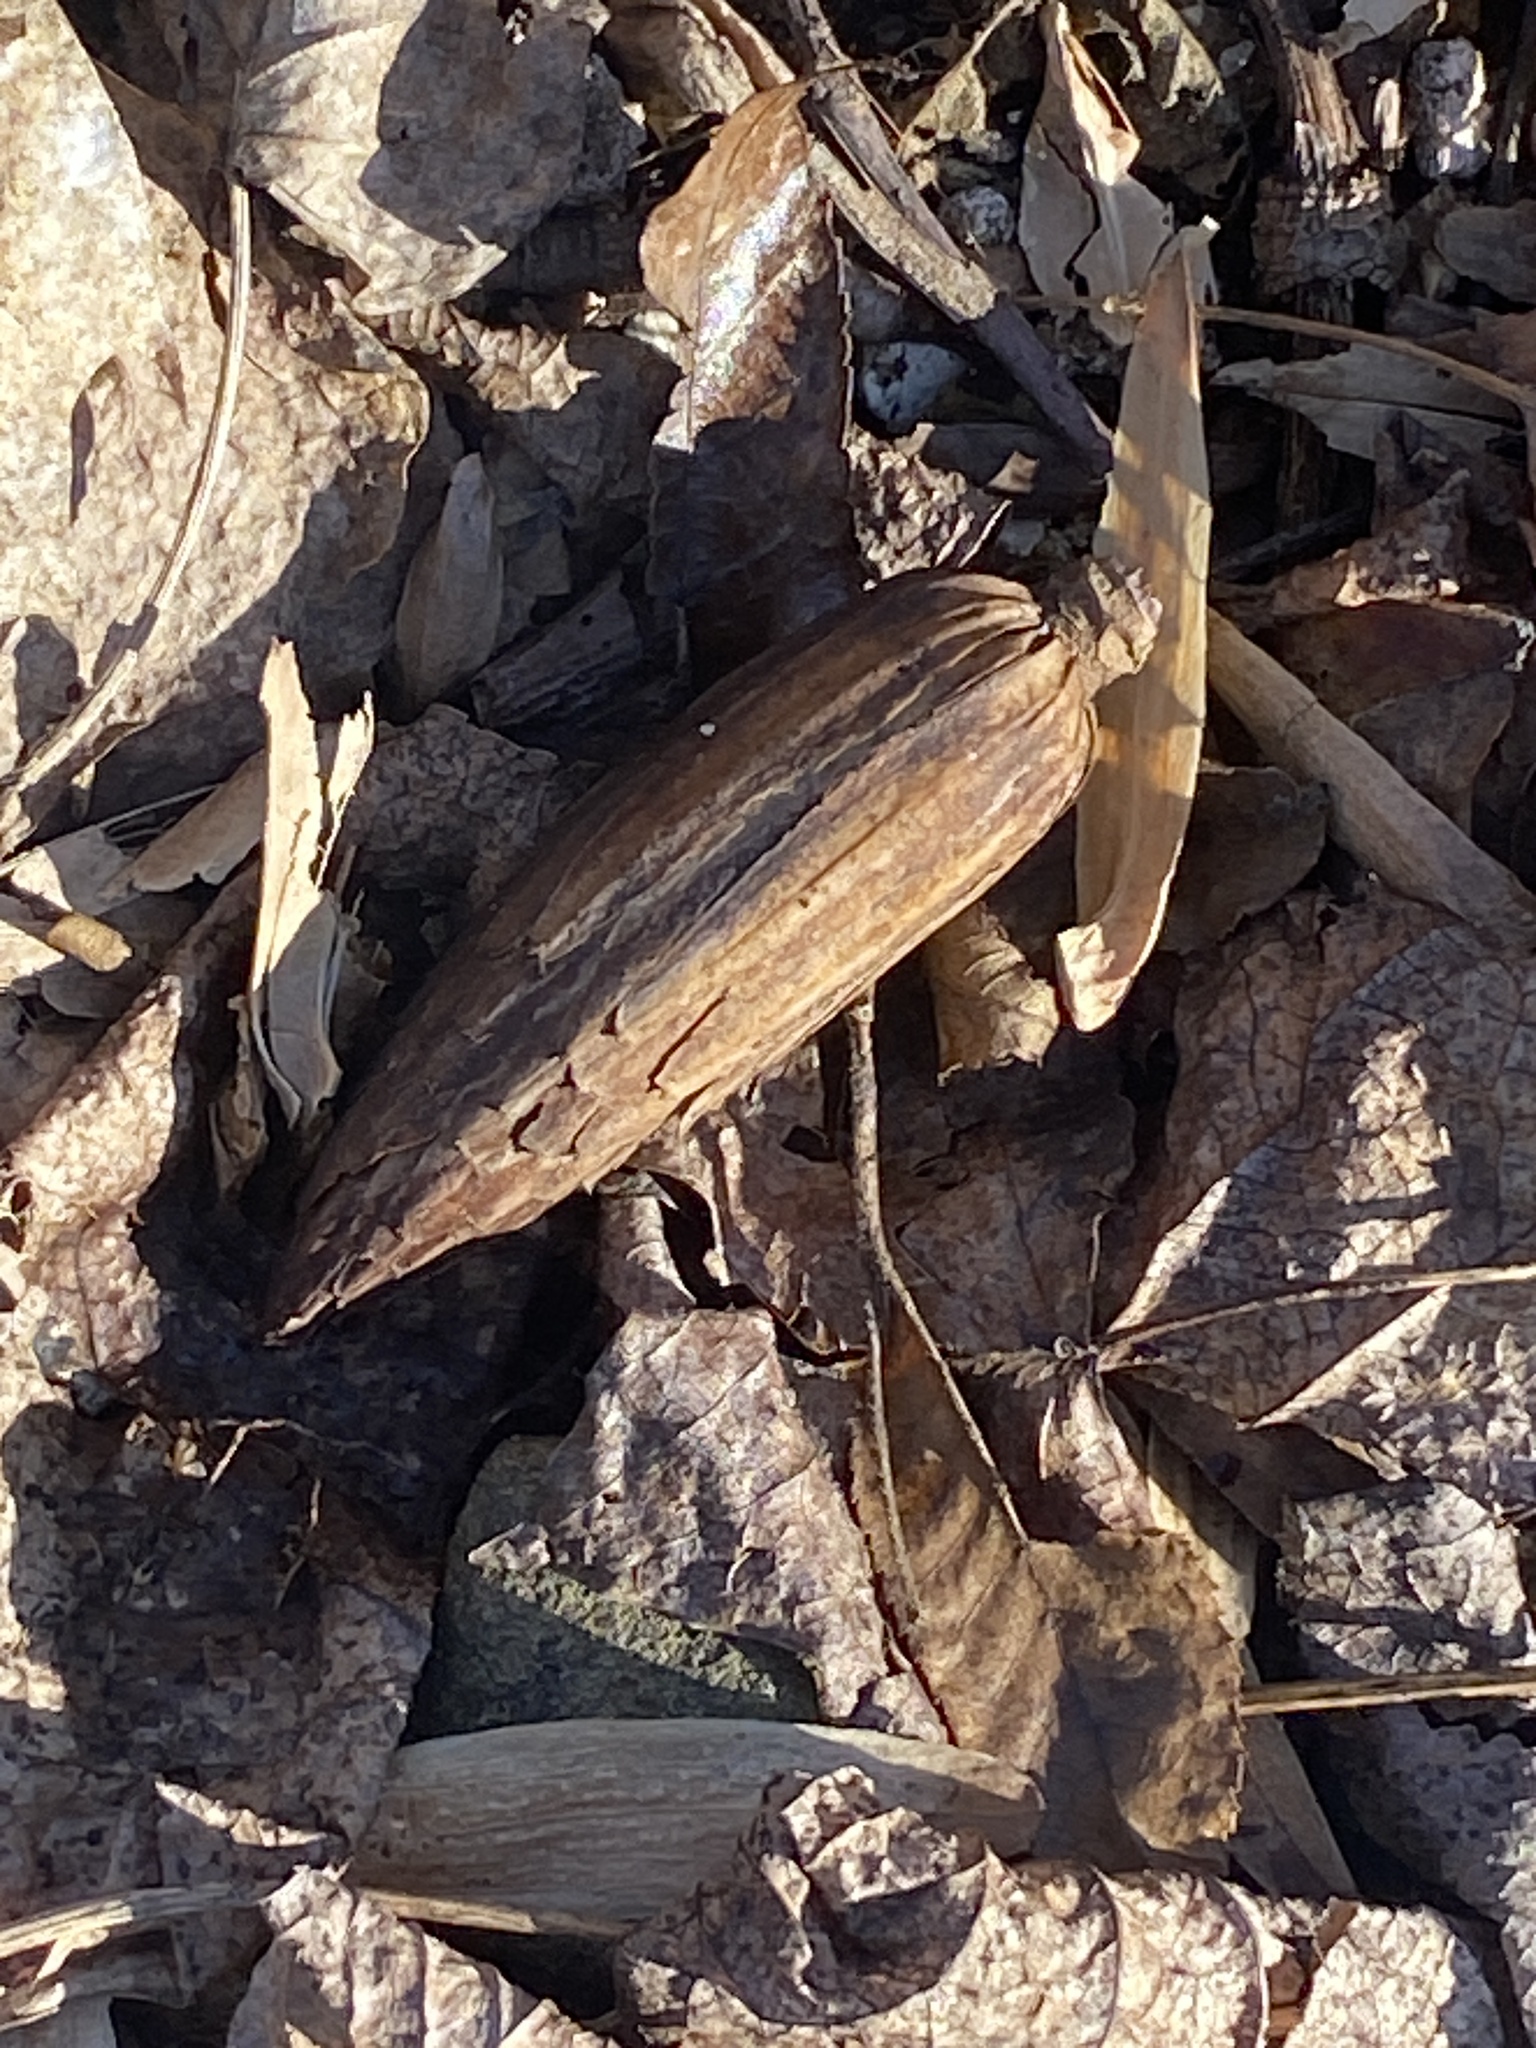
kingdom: Plantae
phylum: Tracheophyta
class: Magnoliopsida
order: Magnoliales
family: Magnoliaceae
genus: Liriodendron
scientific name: Liriodendron tulipifera
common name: Tulip tree
